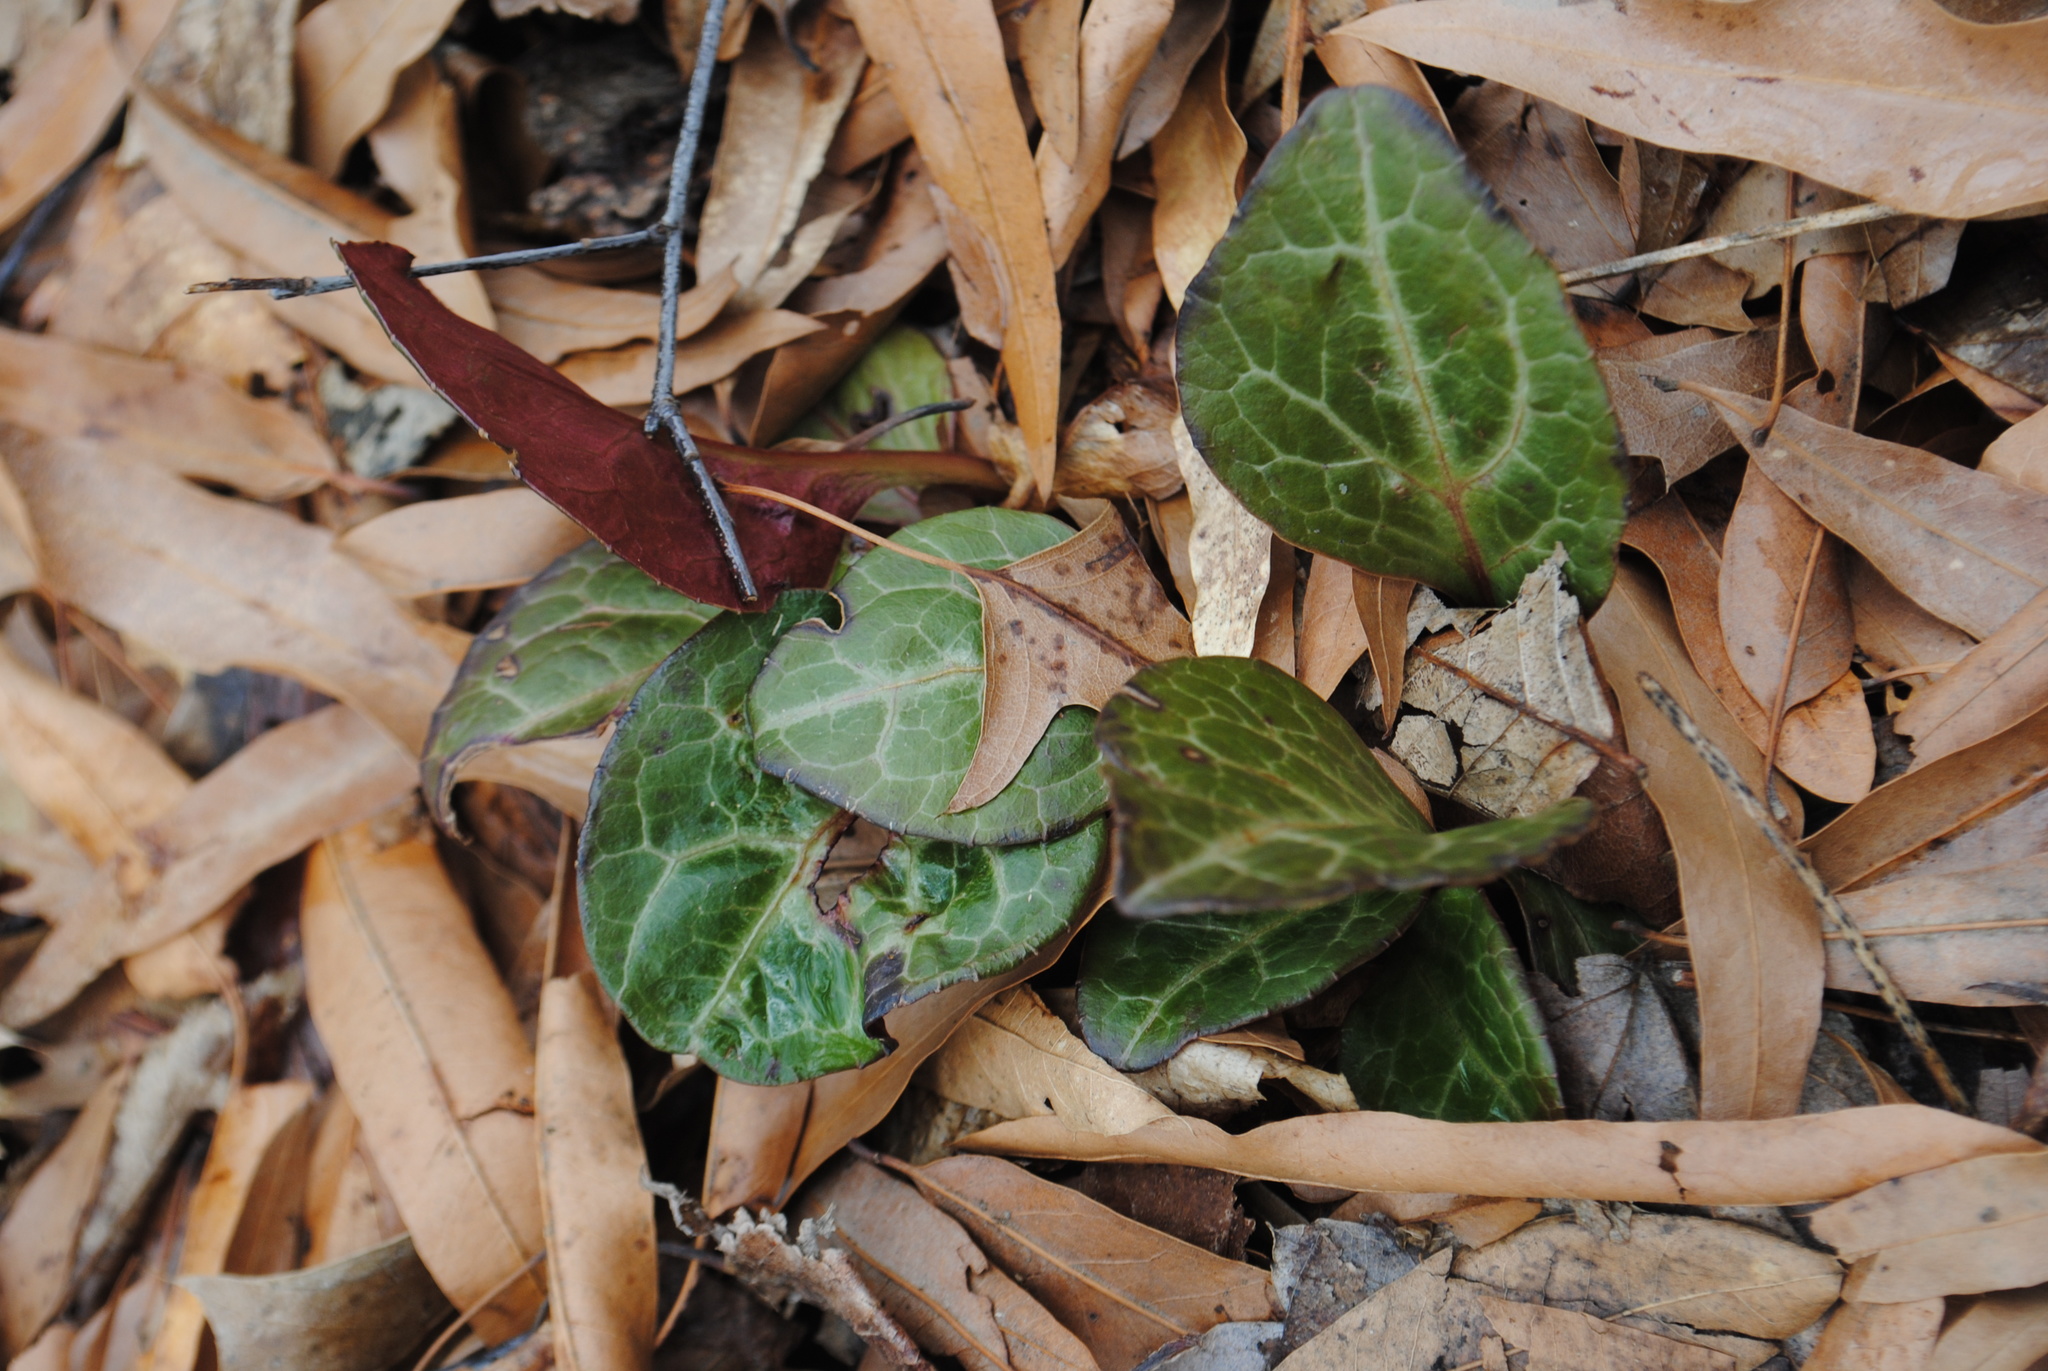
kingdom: Plantae
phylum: Tracheophyta
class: Magnoliopsida
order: Ericales
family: Ericaceae
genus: Pyrola
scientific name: Pyrola americana
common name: American wintergreen
